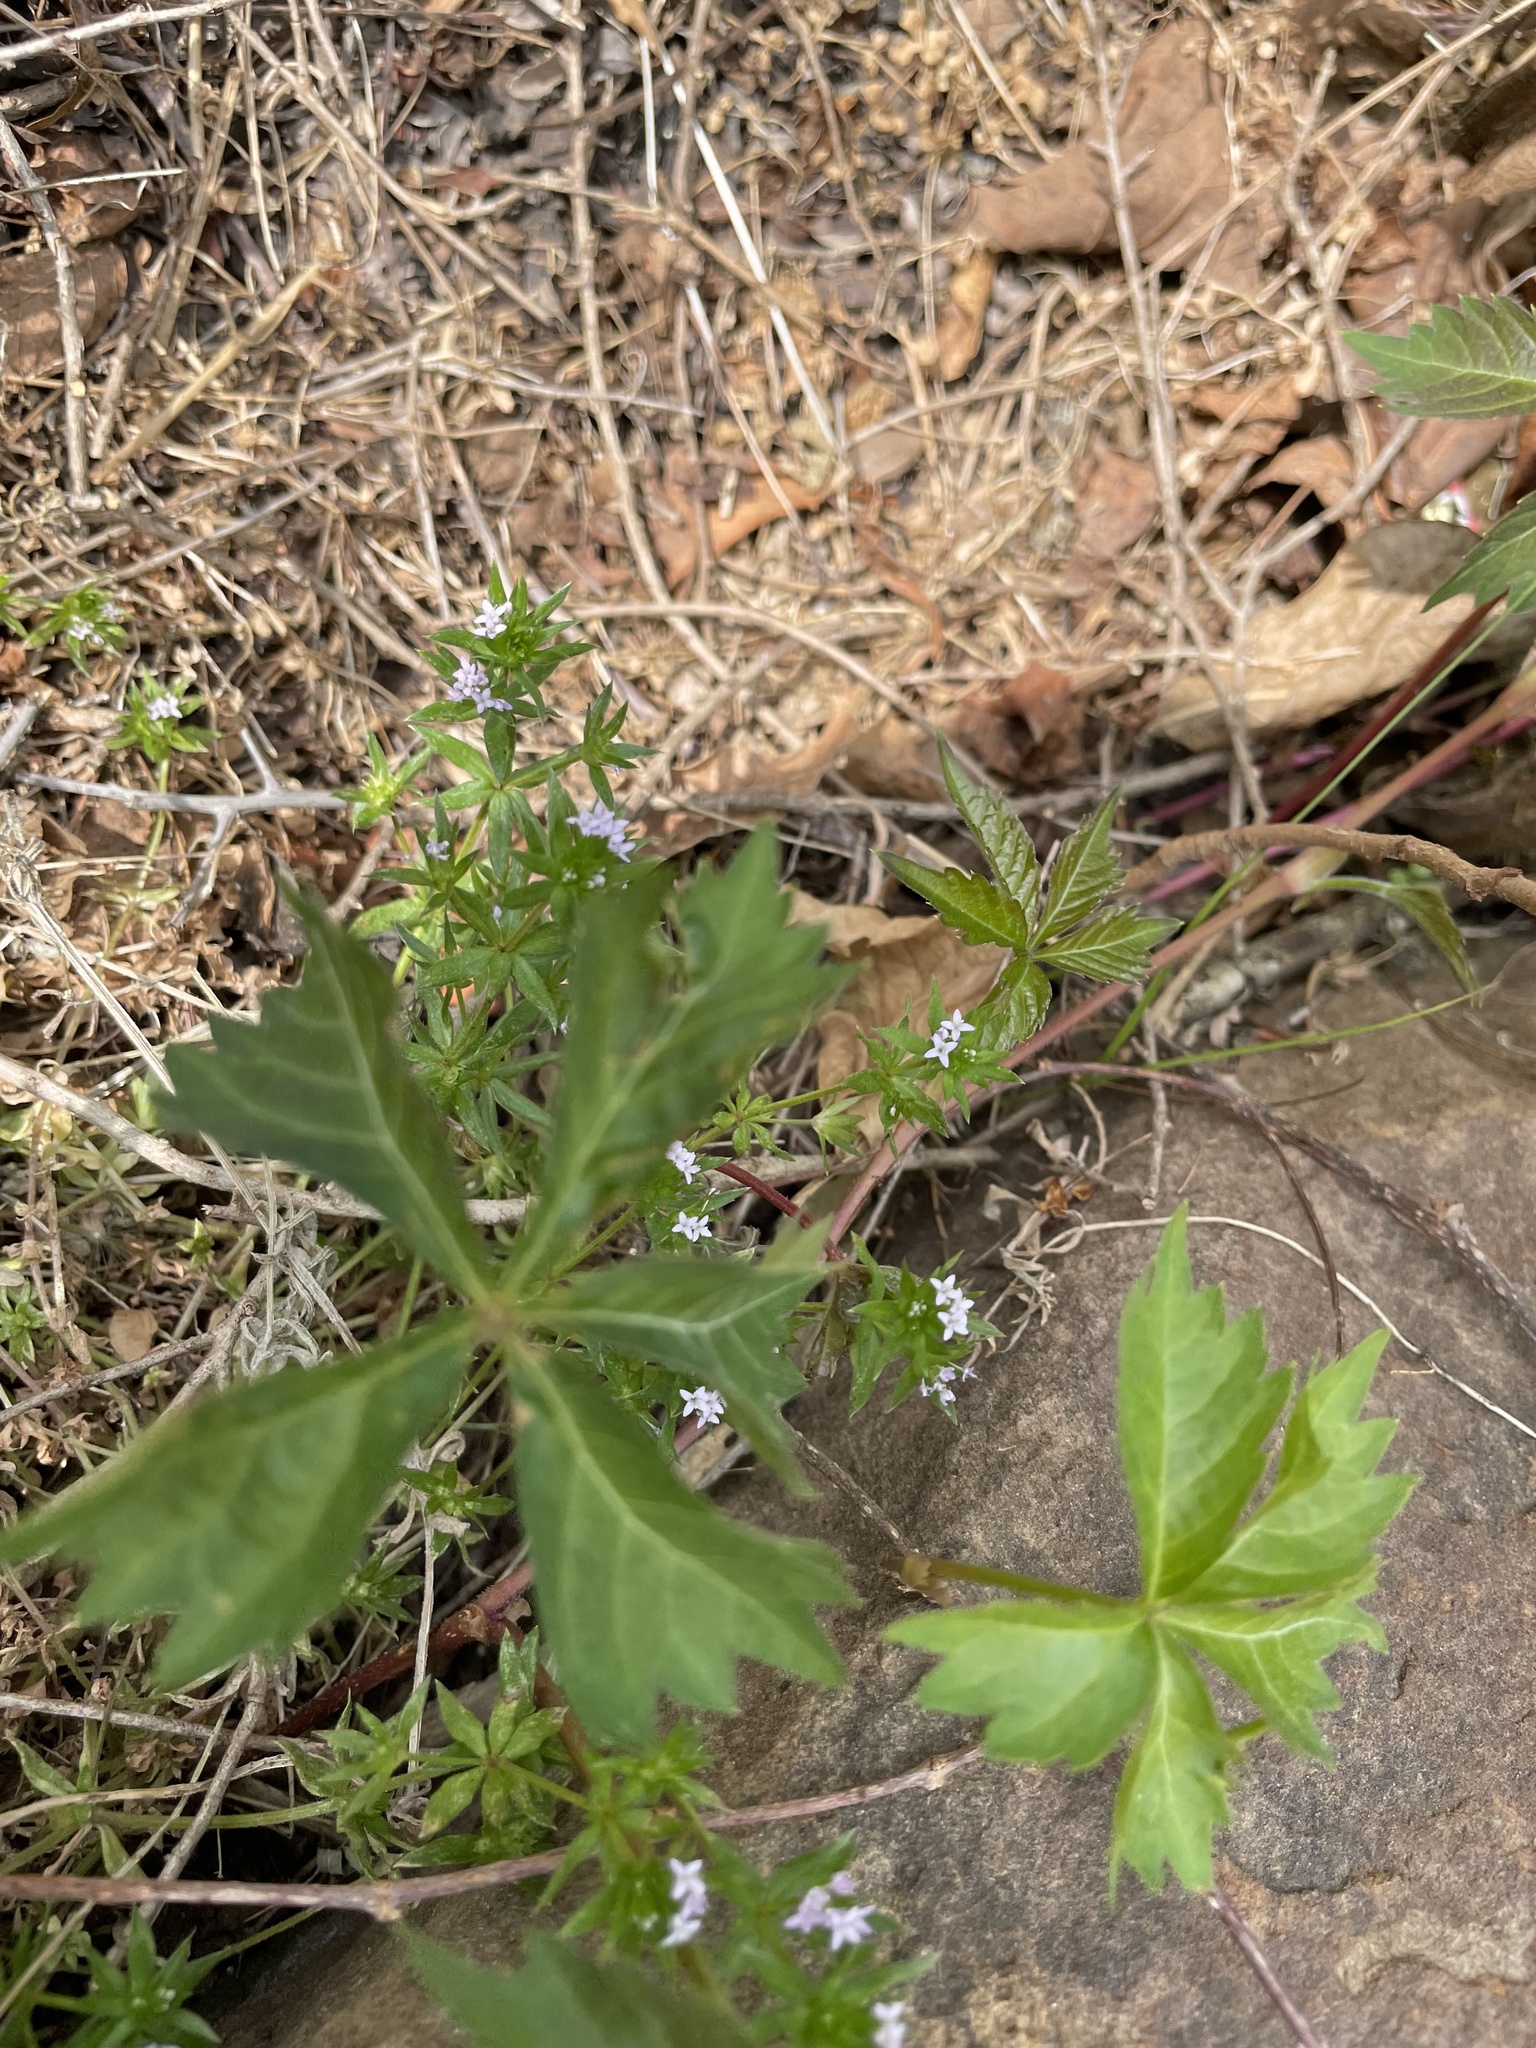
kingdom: Plantae
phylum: Tracheophyta
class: Magnoliopsida
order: Gentianales
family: Rubiaceae
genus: Sherardia
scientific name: Sherardia arvensis
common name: Field madder
